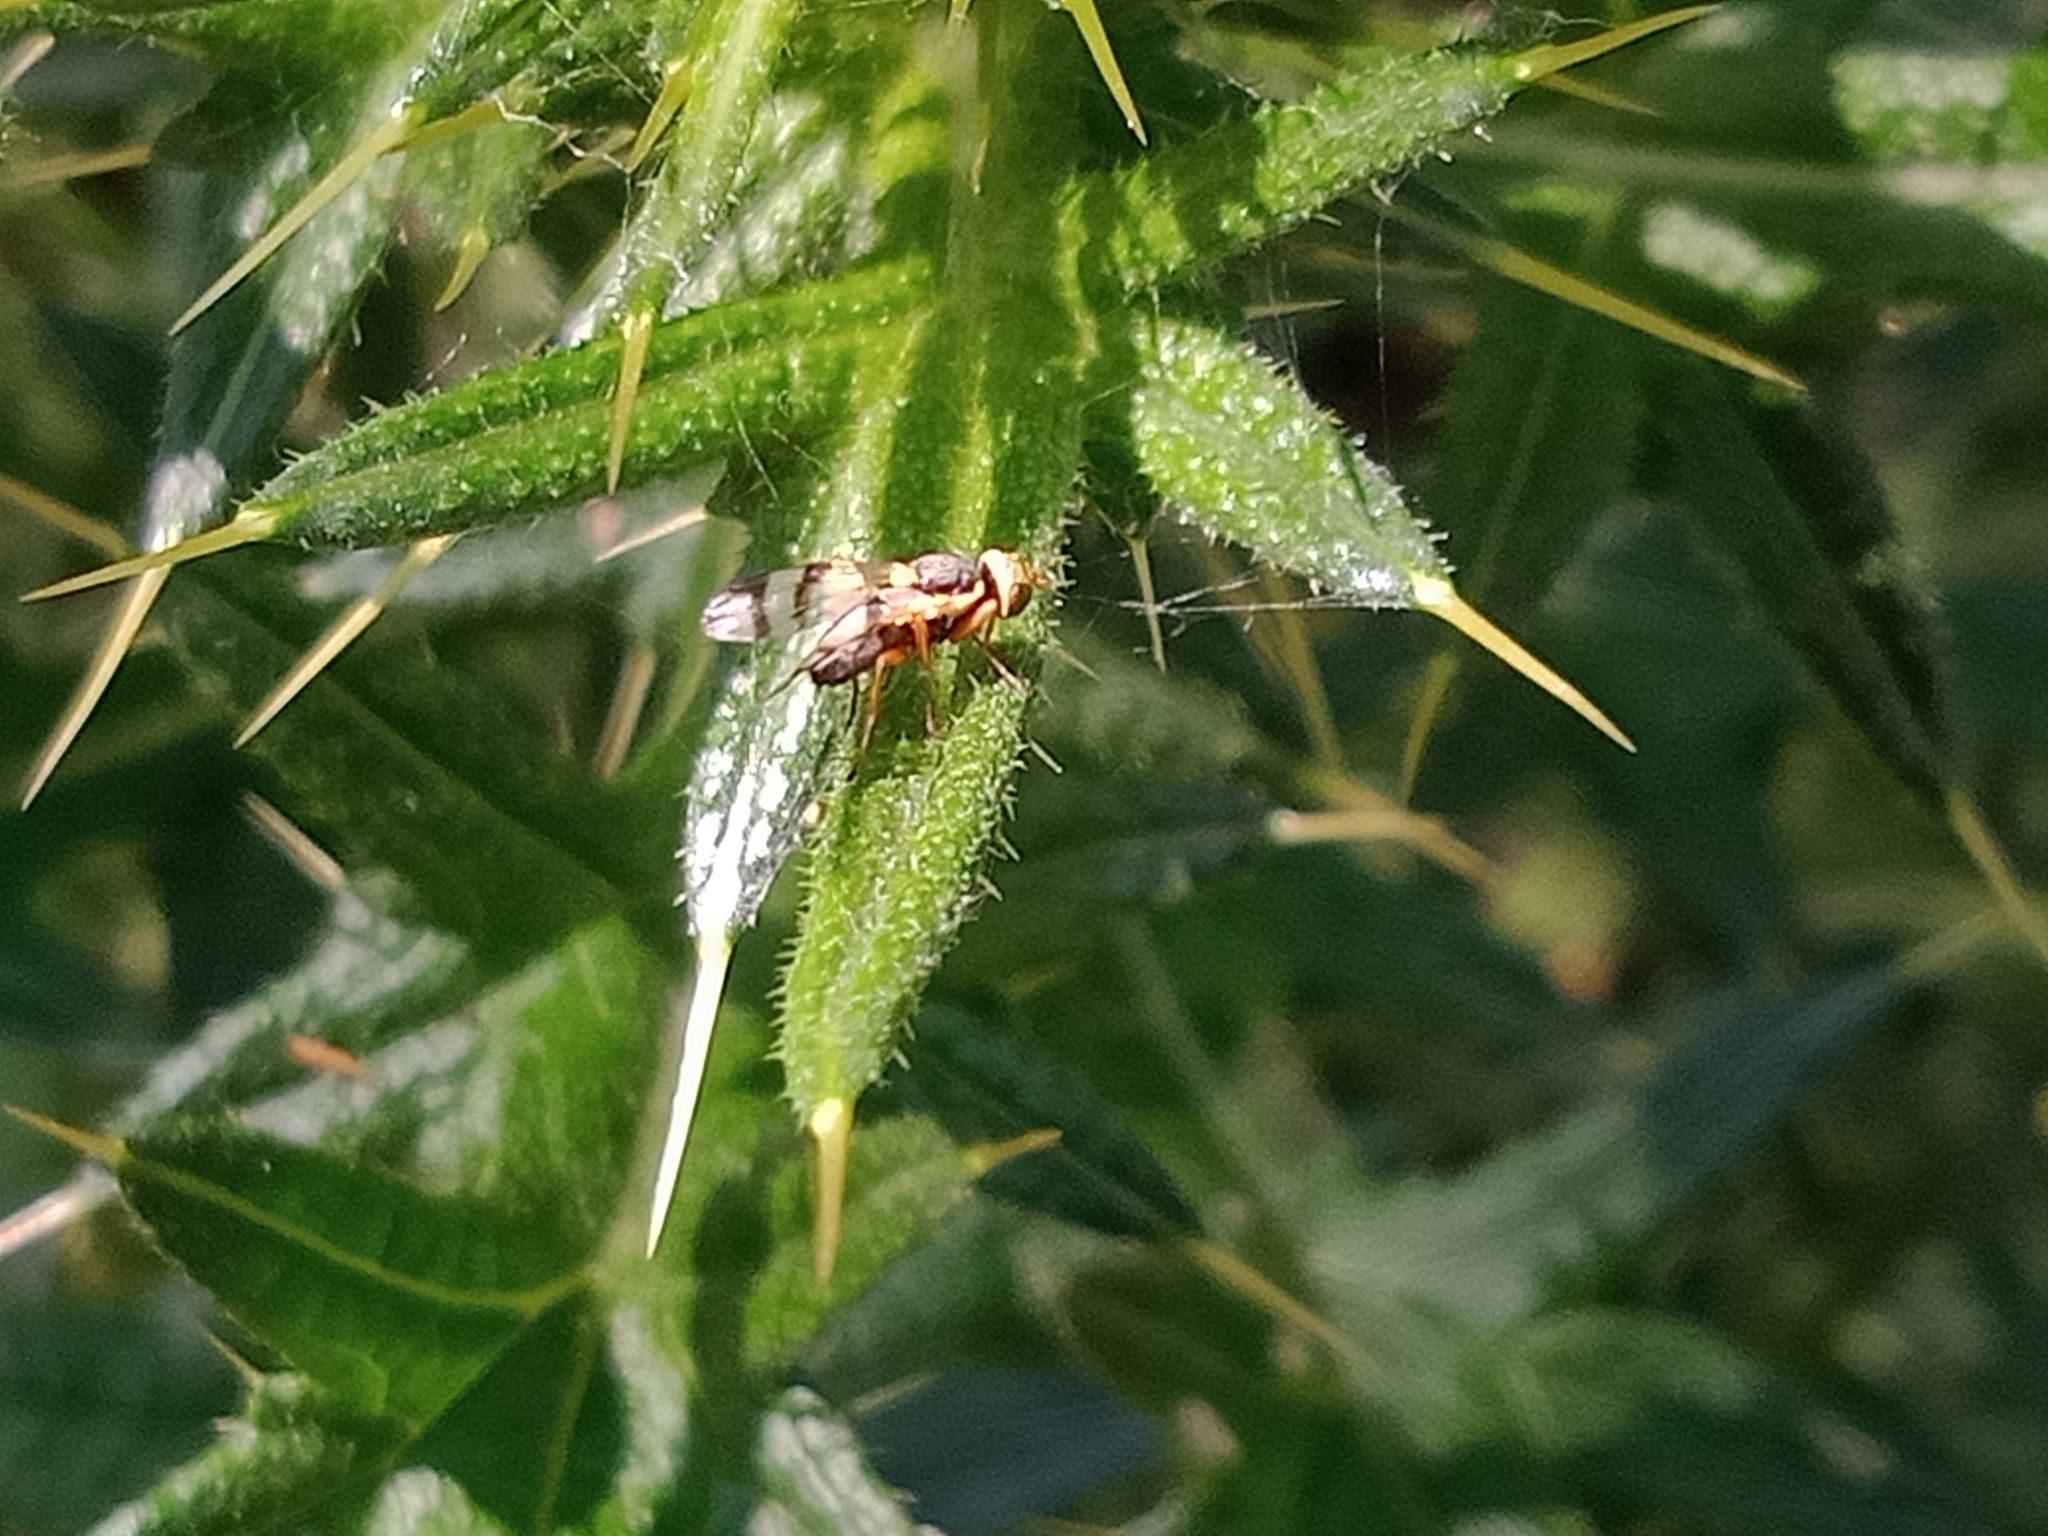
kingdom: Plantae
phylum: Tracheophyta
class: Magnoliopsida
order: Asterales
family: Asteraceae
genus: Cirsium
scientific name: Cirsium vulgare
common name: Bull thistle
